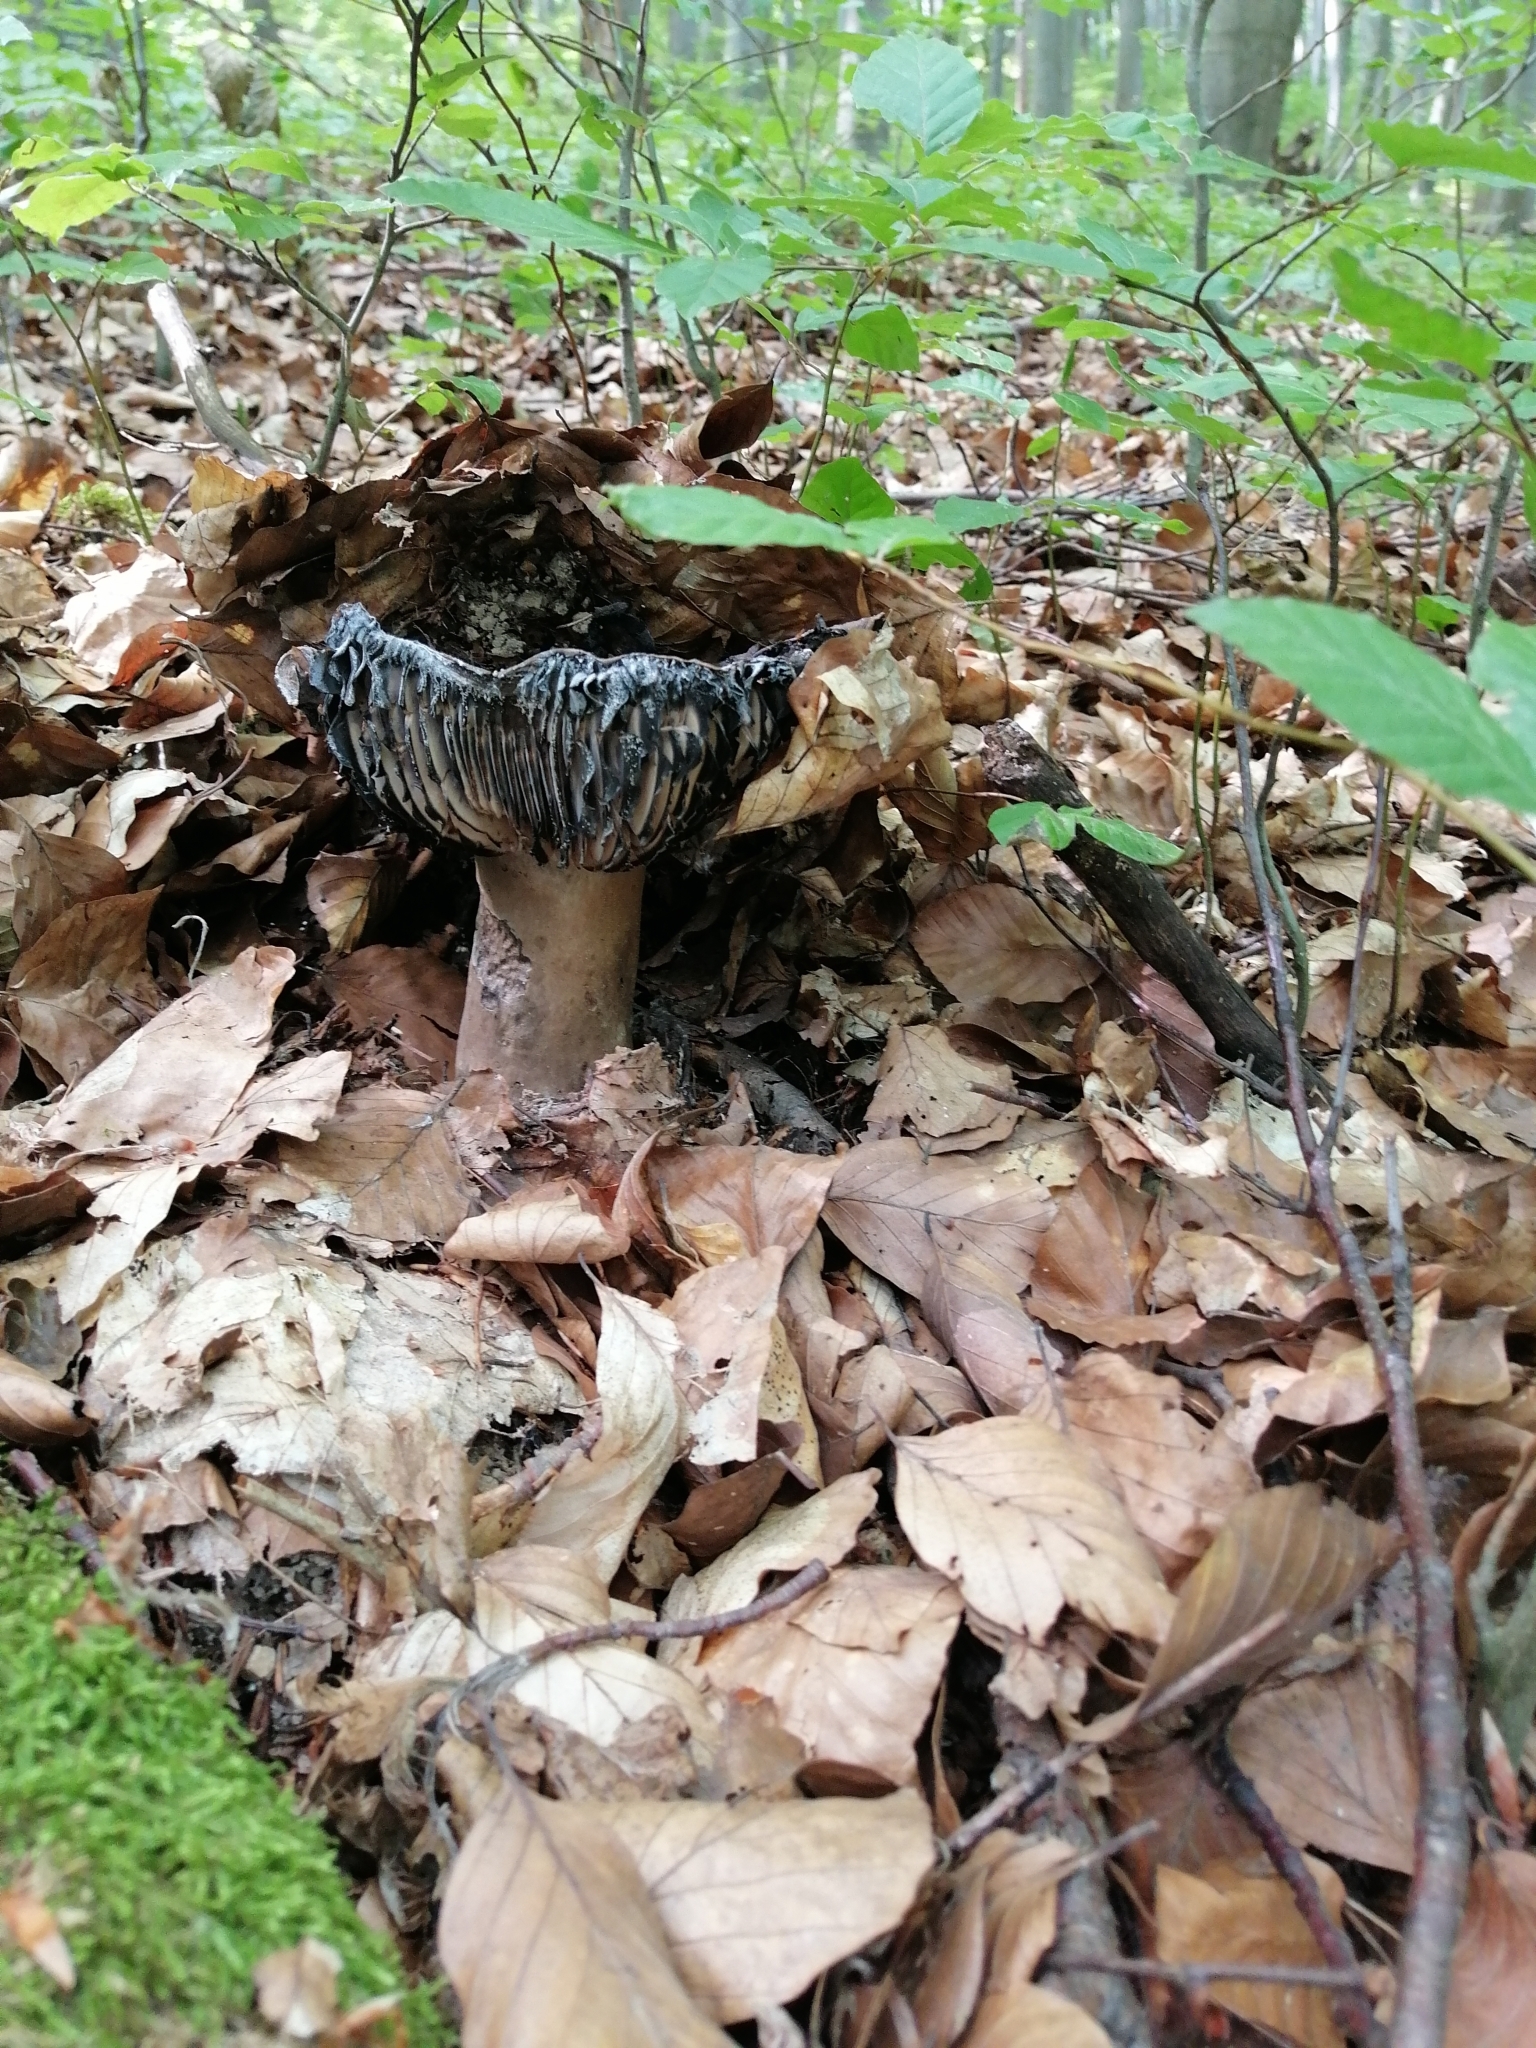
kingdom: Fungi
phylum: Basidiomycota
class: Agaricomycetes
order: Russulales
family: Russulaceae
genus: Russula
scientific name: Russula adusta
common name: Winecork brittlegill
